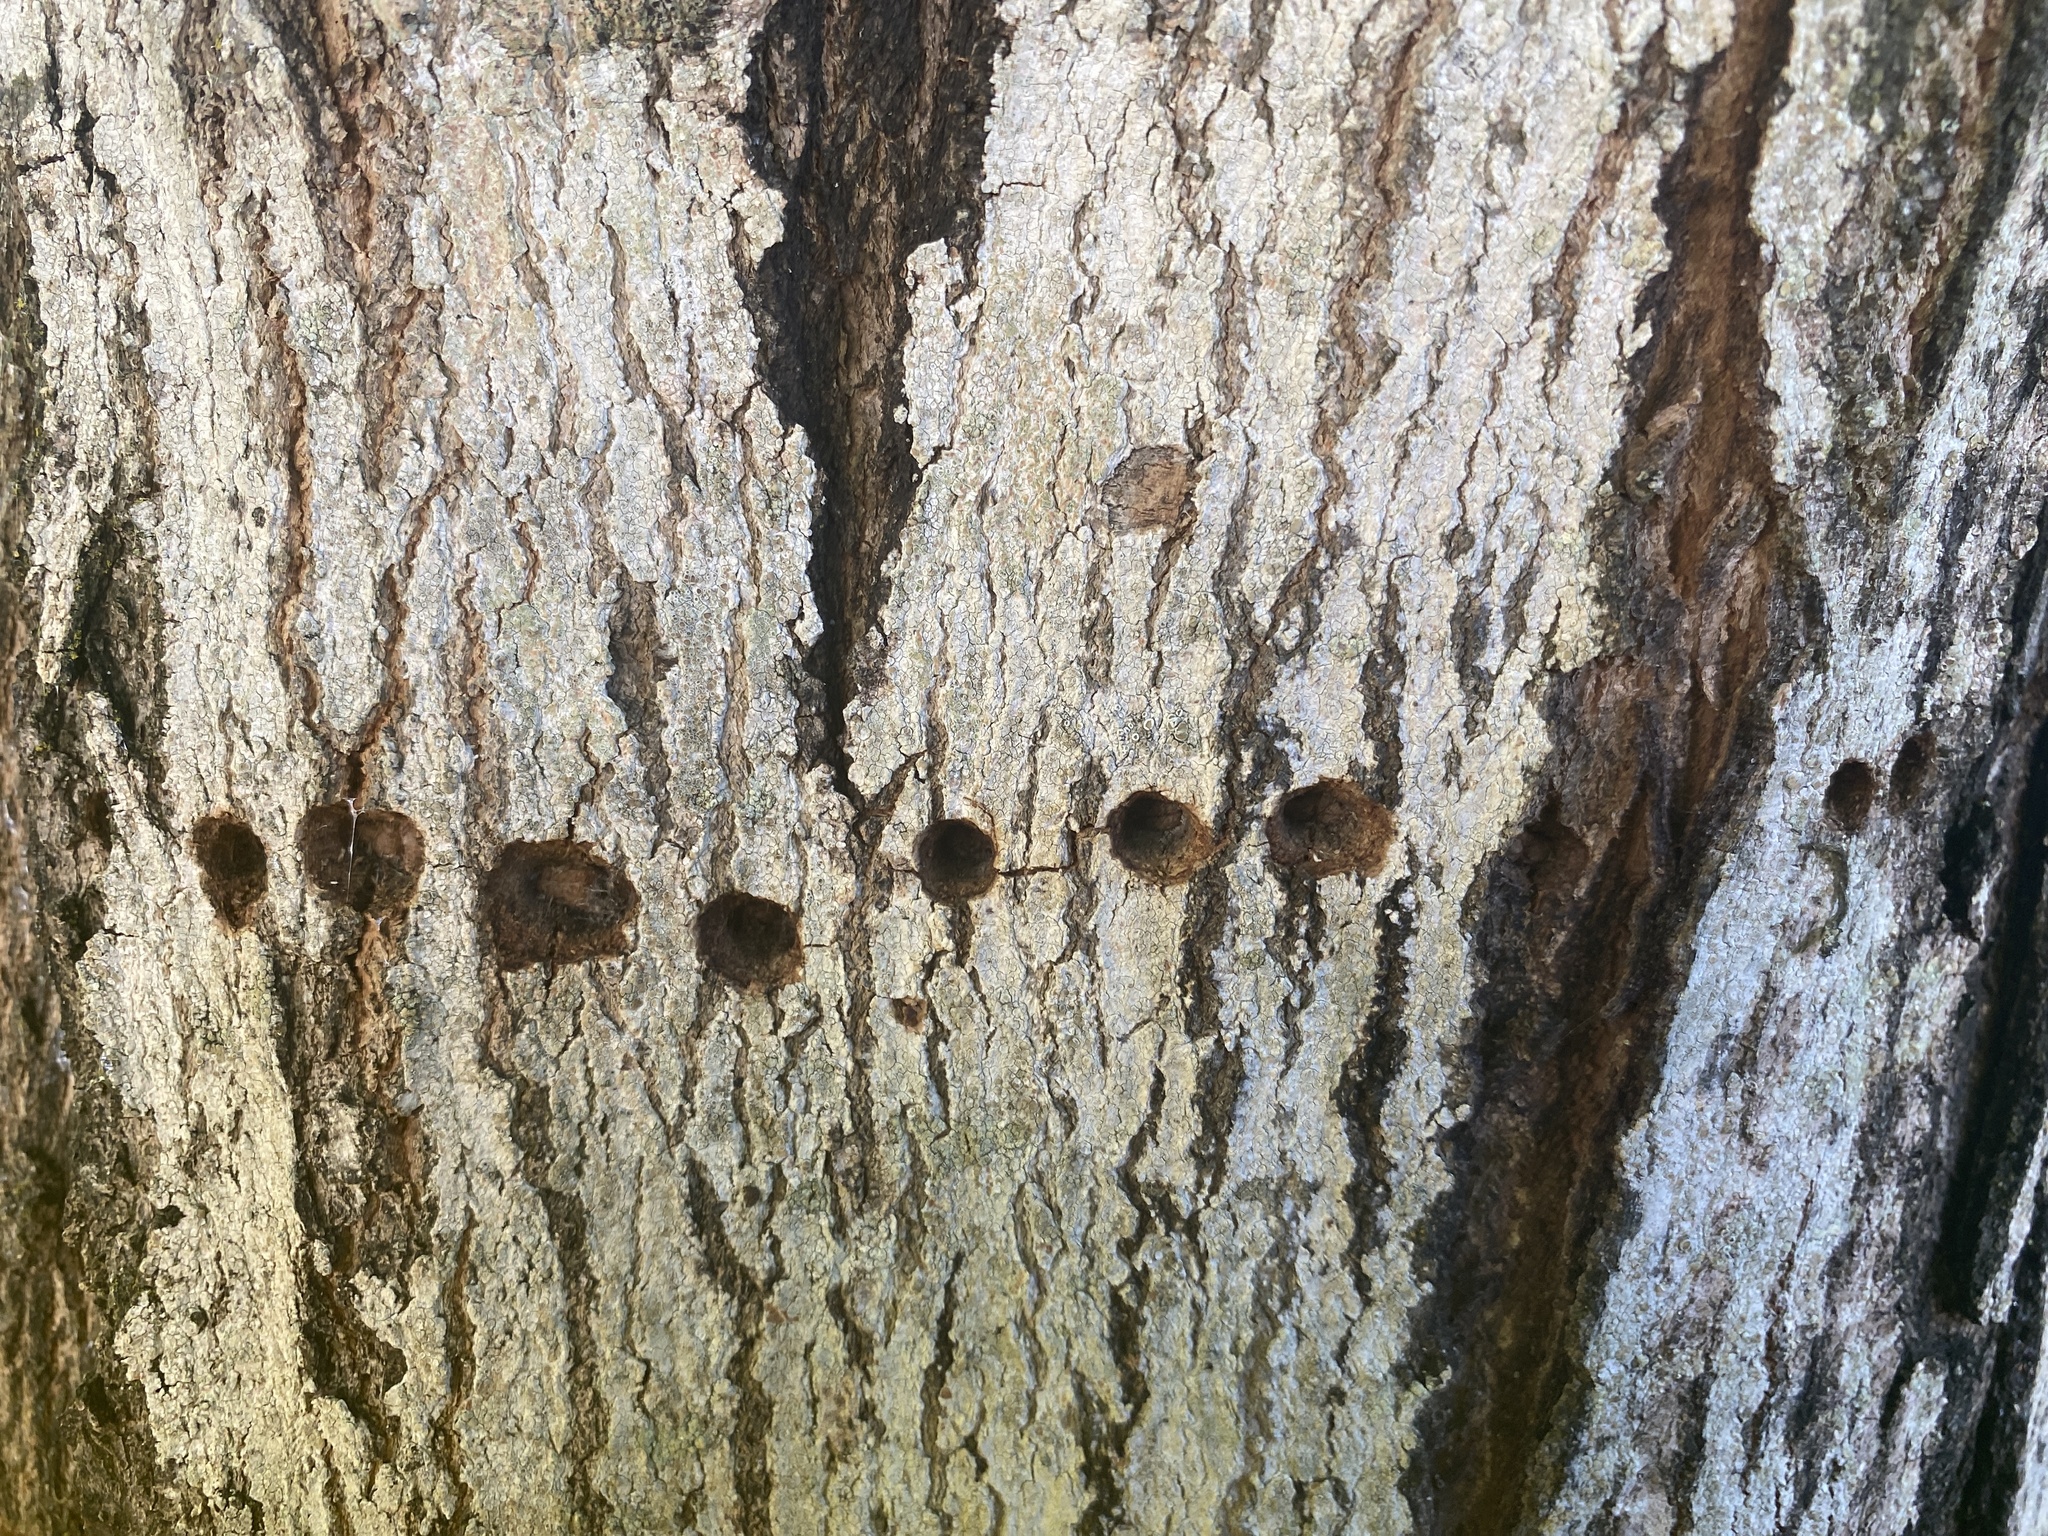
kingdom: Animalia
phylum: Chordata
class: Aves
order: Piciformes
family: Picidae
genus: Sphyrapicus
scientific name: Sphyrapicus ruber
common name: Red-breasted sapsucker
